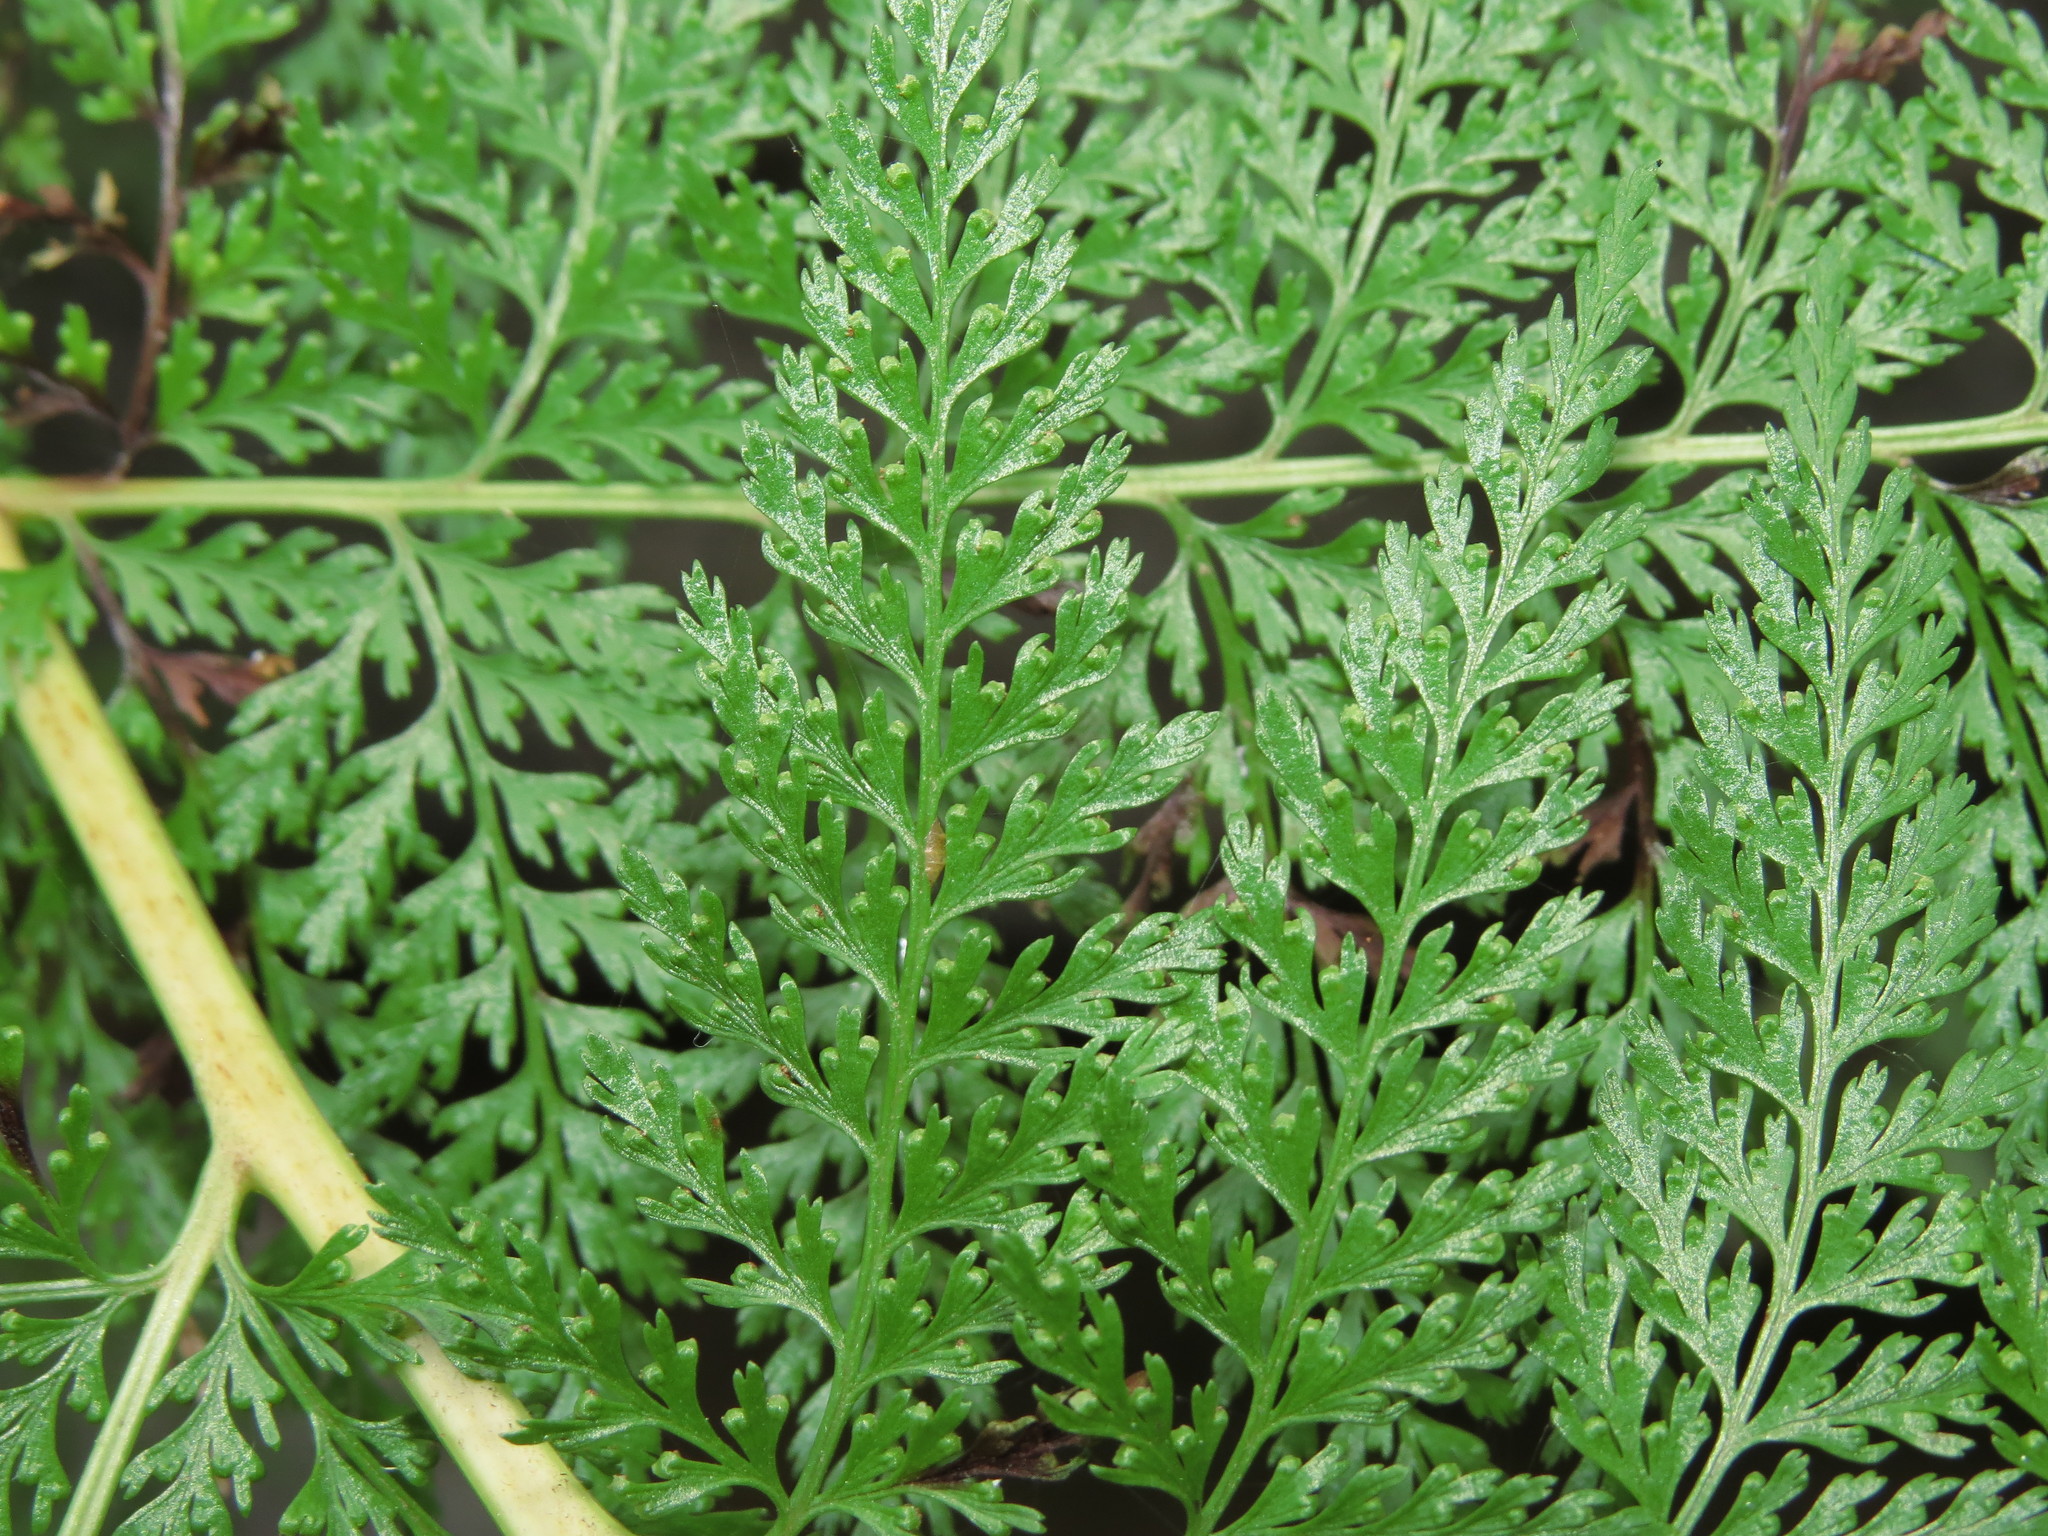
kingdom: Plantae
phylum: Tracheophyta
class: Polypodiopsida
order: Polypodiales
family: Dennstaedtiaceae
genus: Dennstaedtia
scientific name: Dennstaedtia glauca
